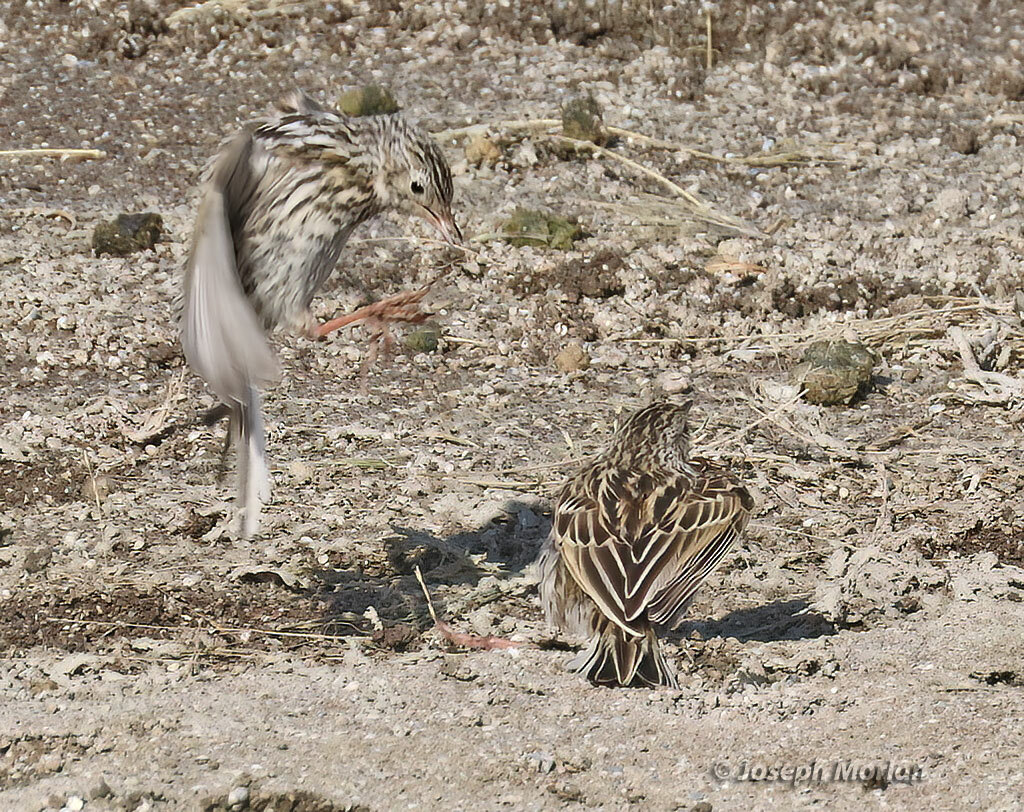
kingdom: Animalia
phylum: Chordata
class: Aves
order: Passeriformes
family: Motacillidae
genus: Anthus
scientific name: Anthus correndera
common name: Correndera pipit
